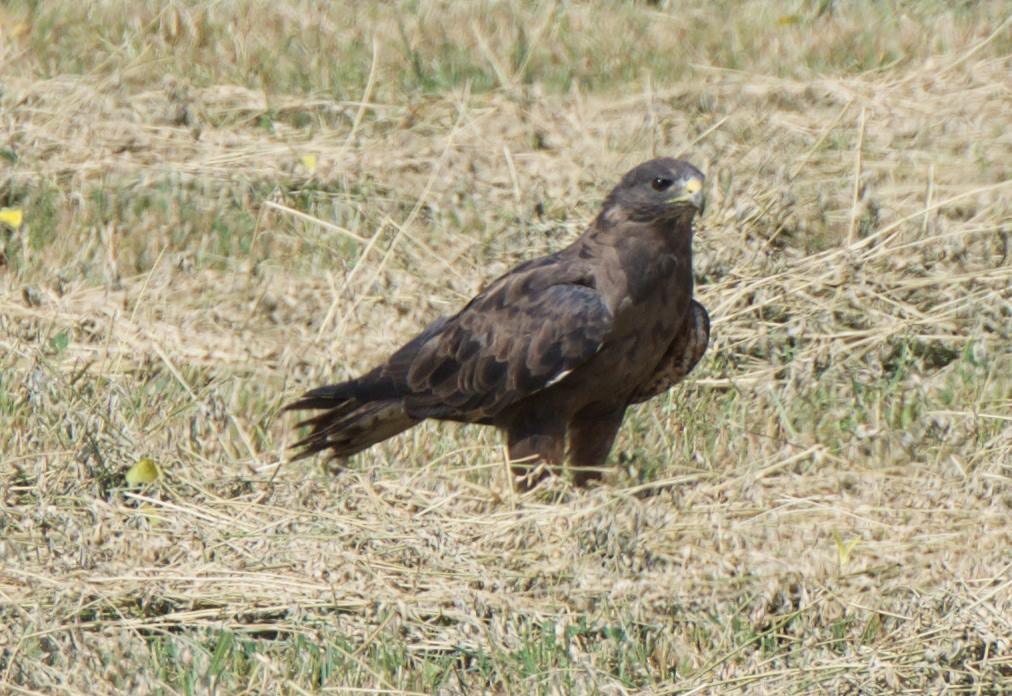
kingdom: Animalia
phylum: Chordata
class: Aves
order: Accipitriformes
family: Accipitridae
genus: Buteo
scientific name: Buteo swainsoni
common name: Swainson's hawk
